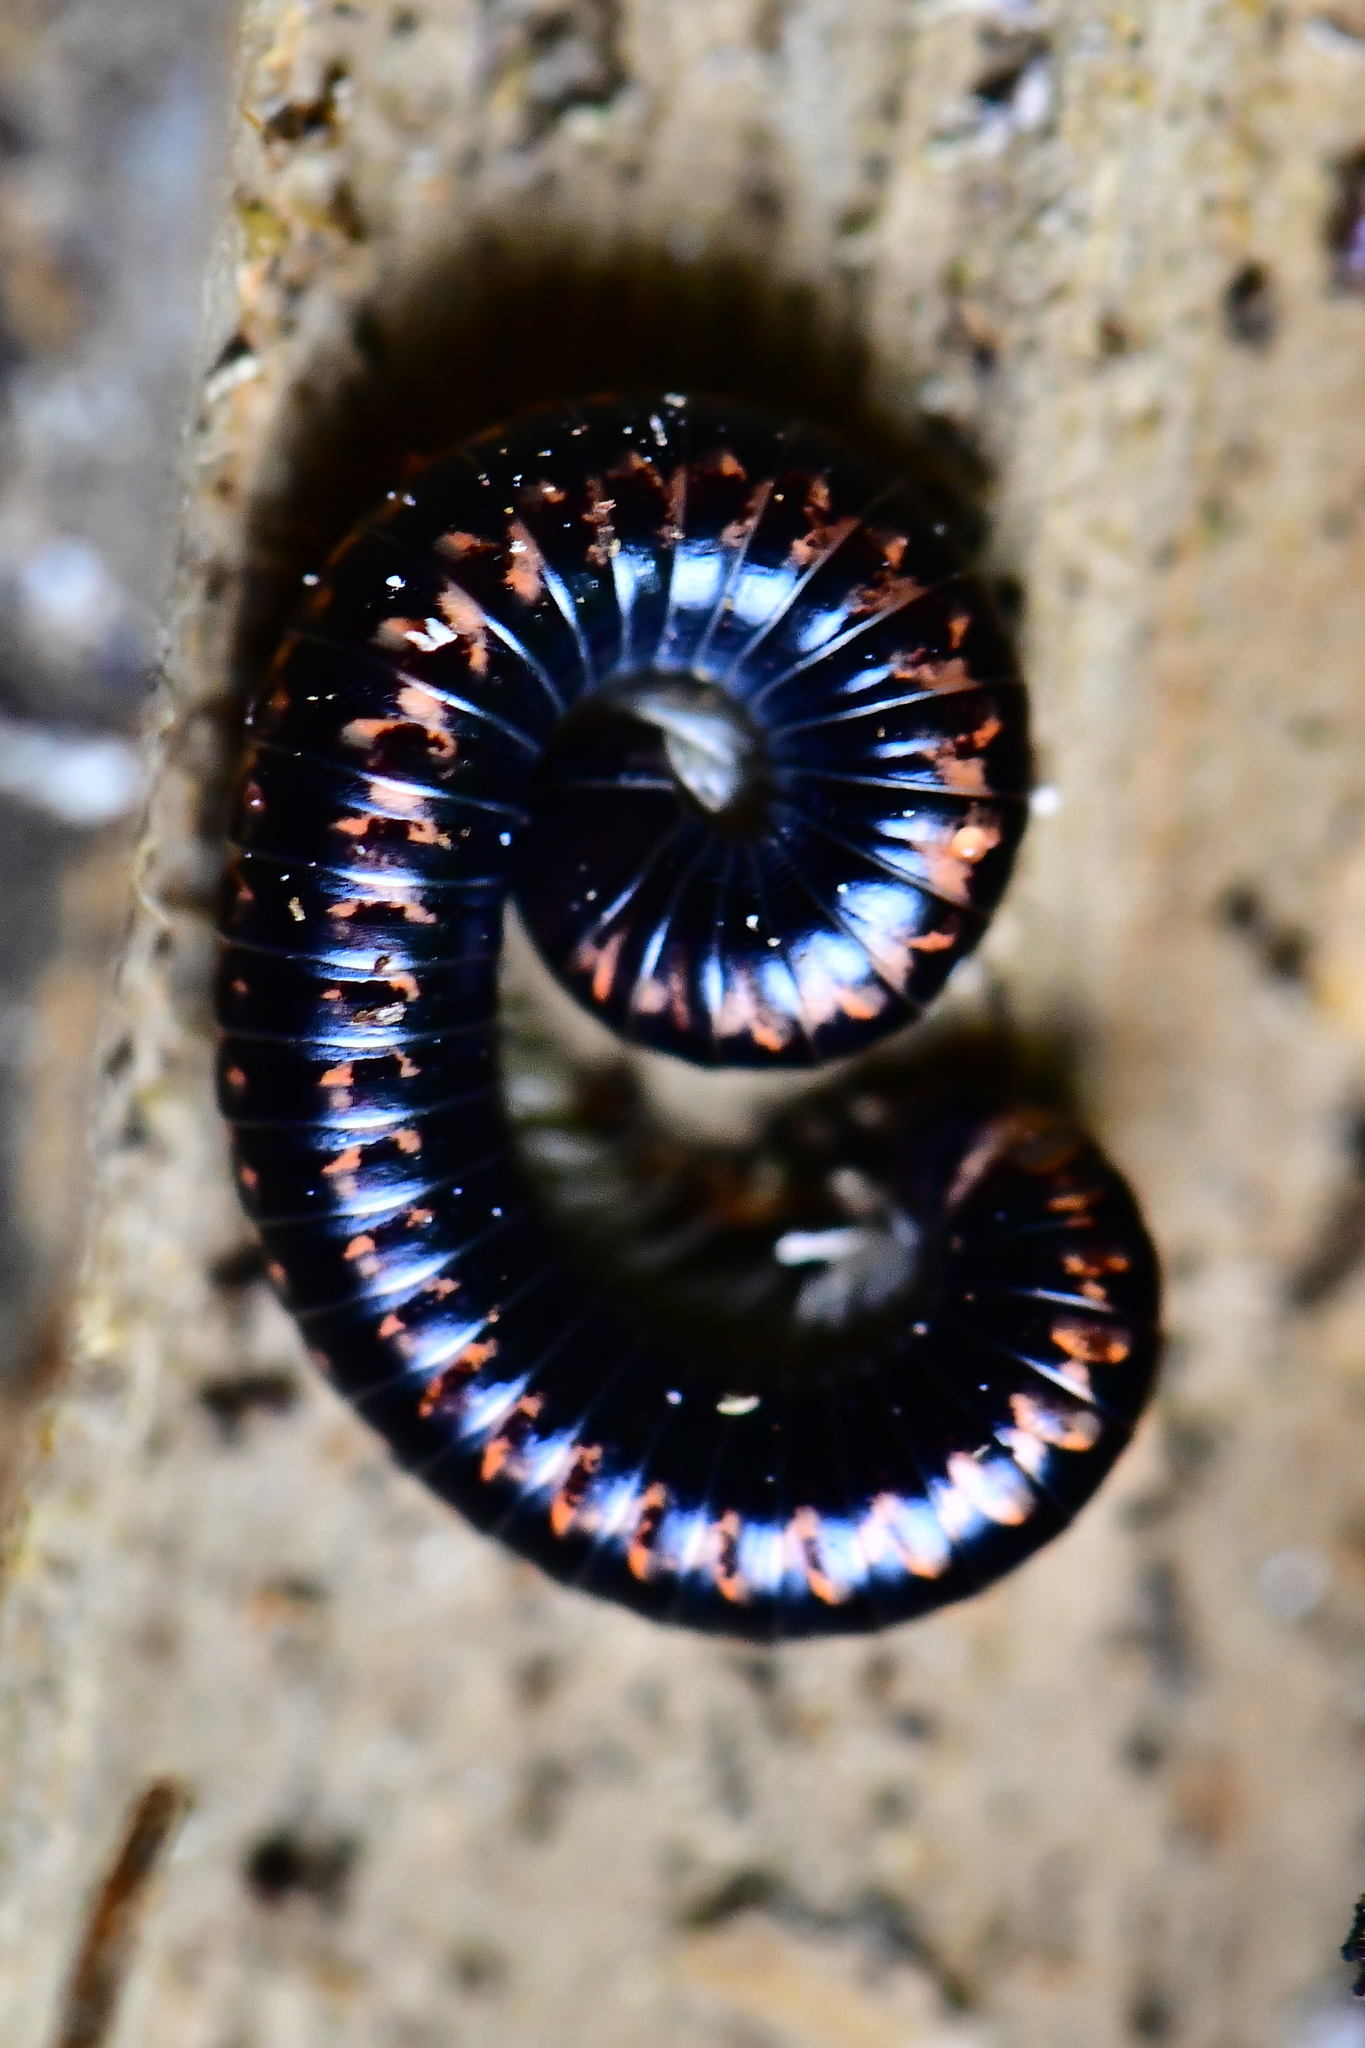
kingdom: Animalia
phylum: Arthropoda
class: Diplopoda
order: Spirobolida
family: Spirobolellidae
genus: Spirobolellus
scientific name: Spirobolellus antipodarum
